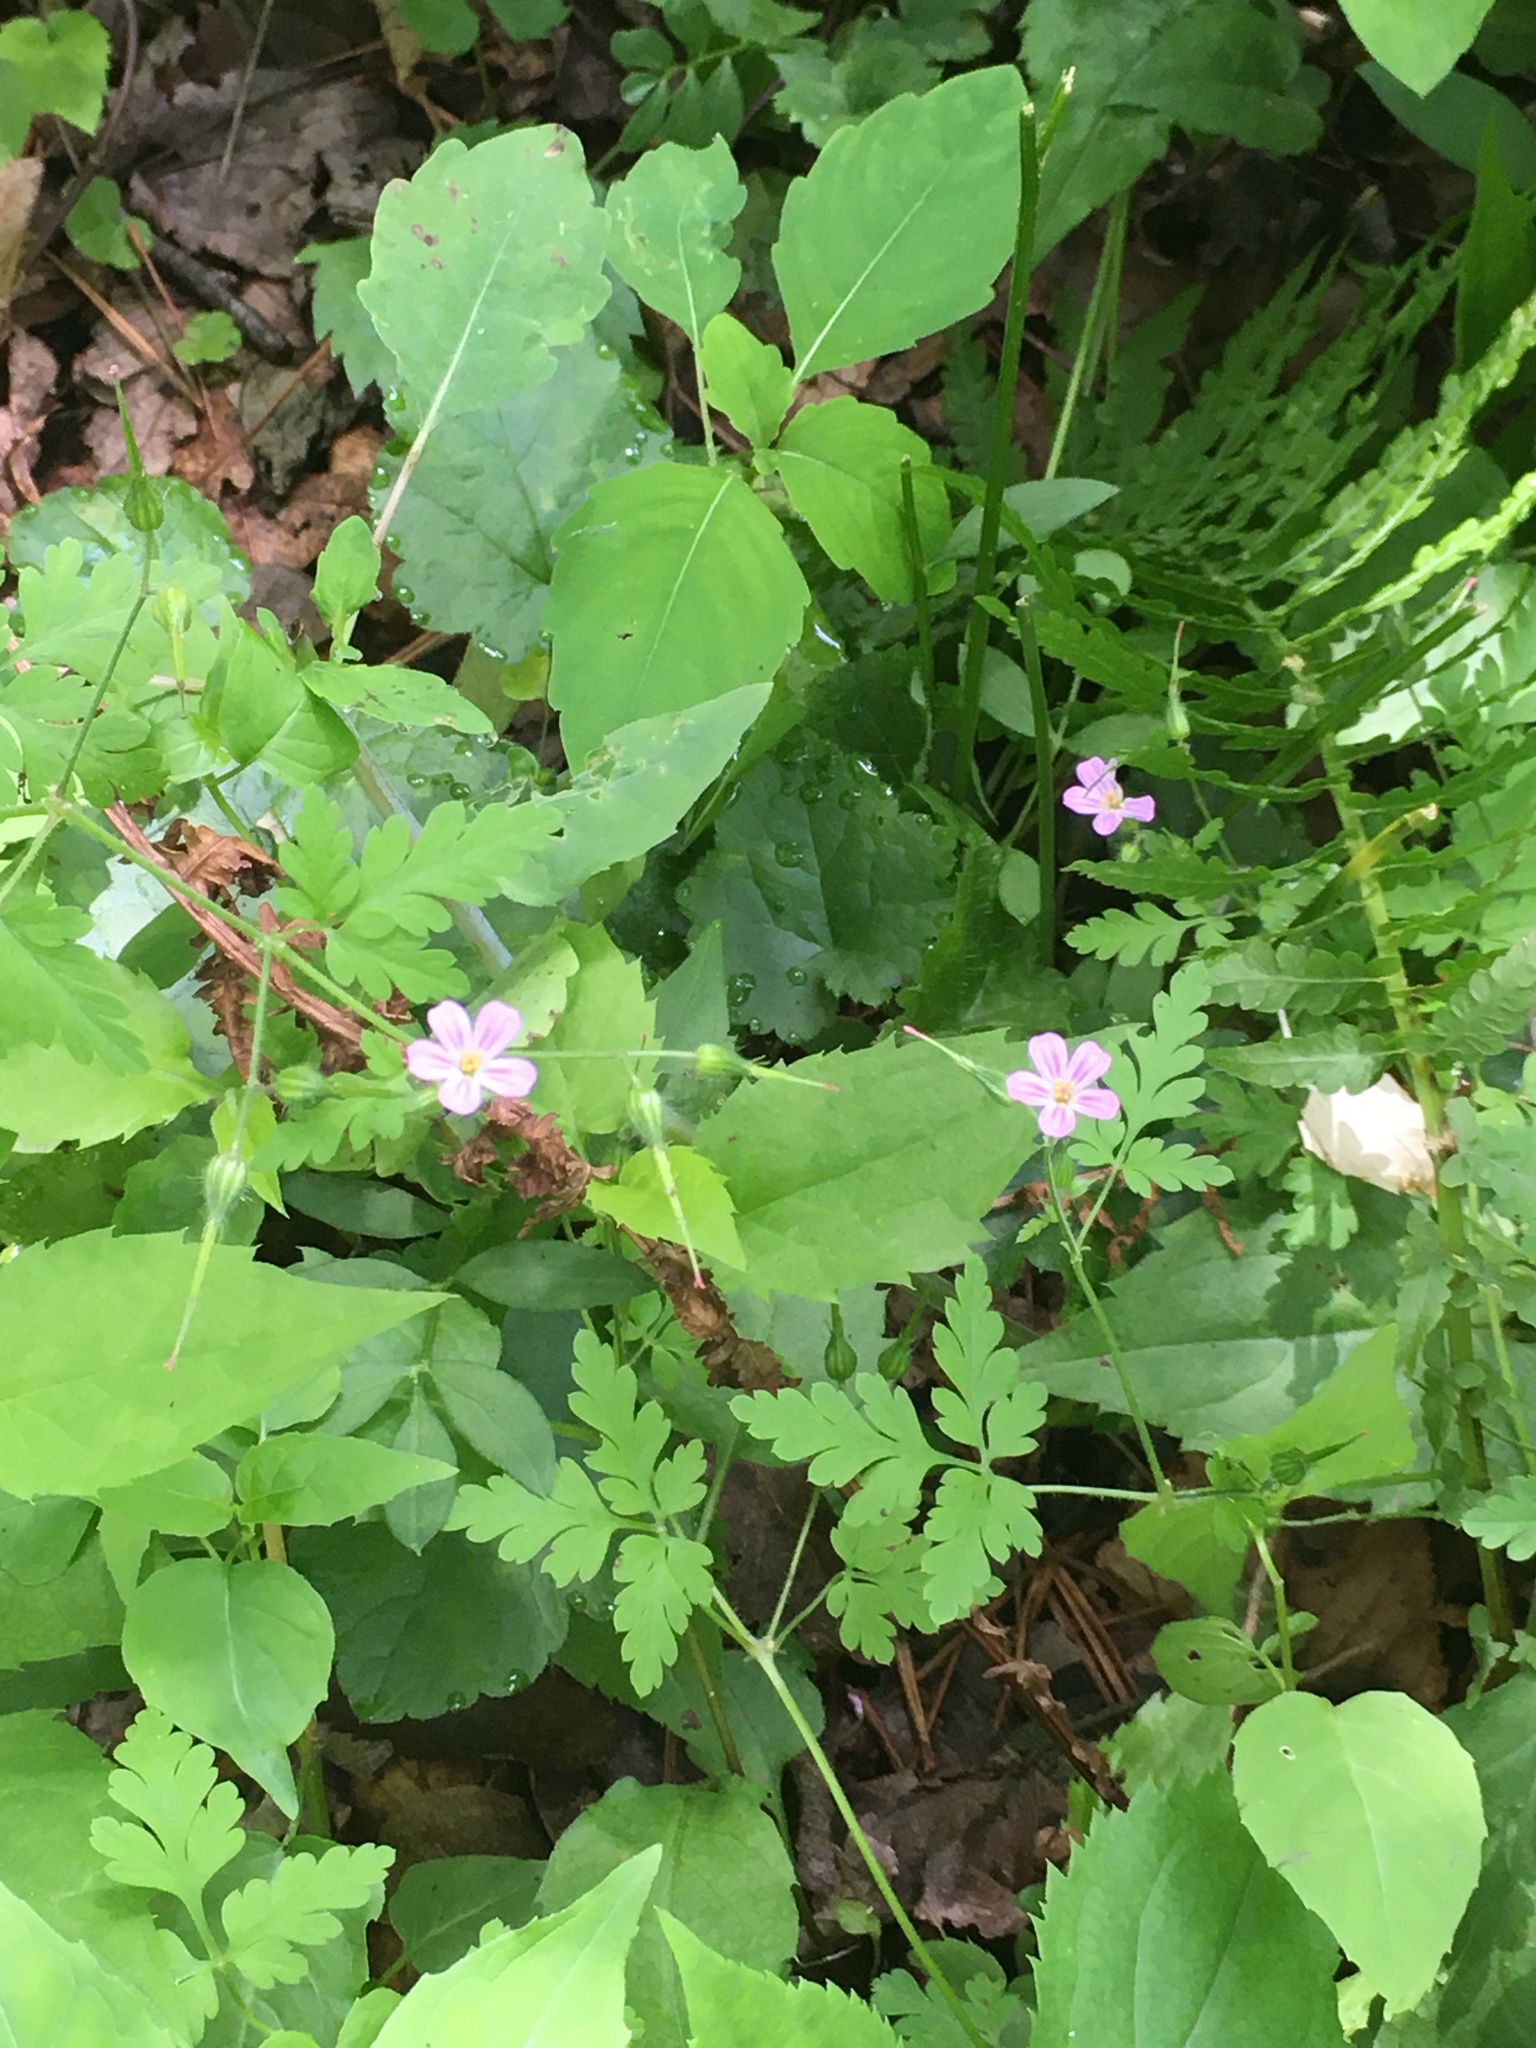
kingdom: Plantae
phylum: Tracheophyta
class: Magnoliopsida
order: Geraniales
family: Geraniaceae
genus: Geranium
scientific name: Geranium robertianum
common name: Herb-robert
